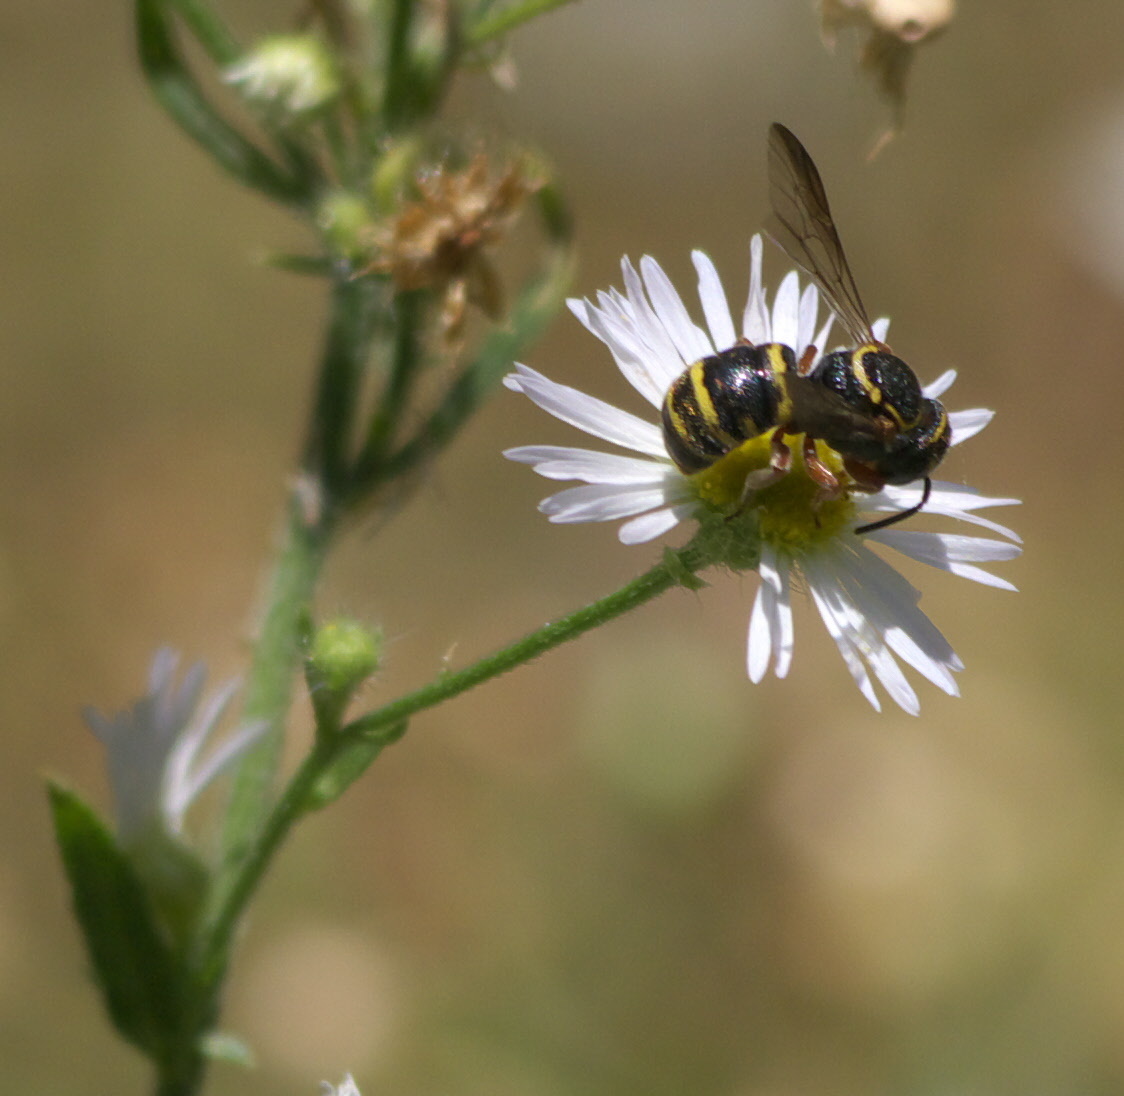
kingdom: Animalia
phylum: Arthropoda
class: Insecta
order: Hymenoptera
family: Megachilidae
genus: Stelis
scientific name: Stelis costalis
